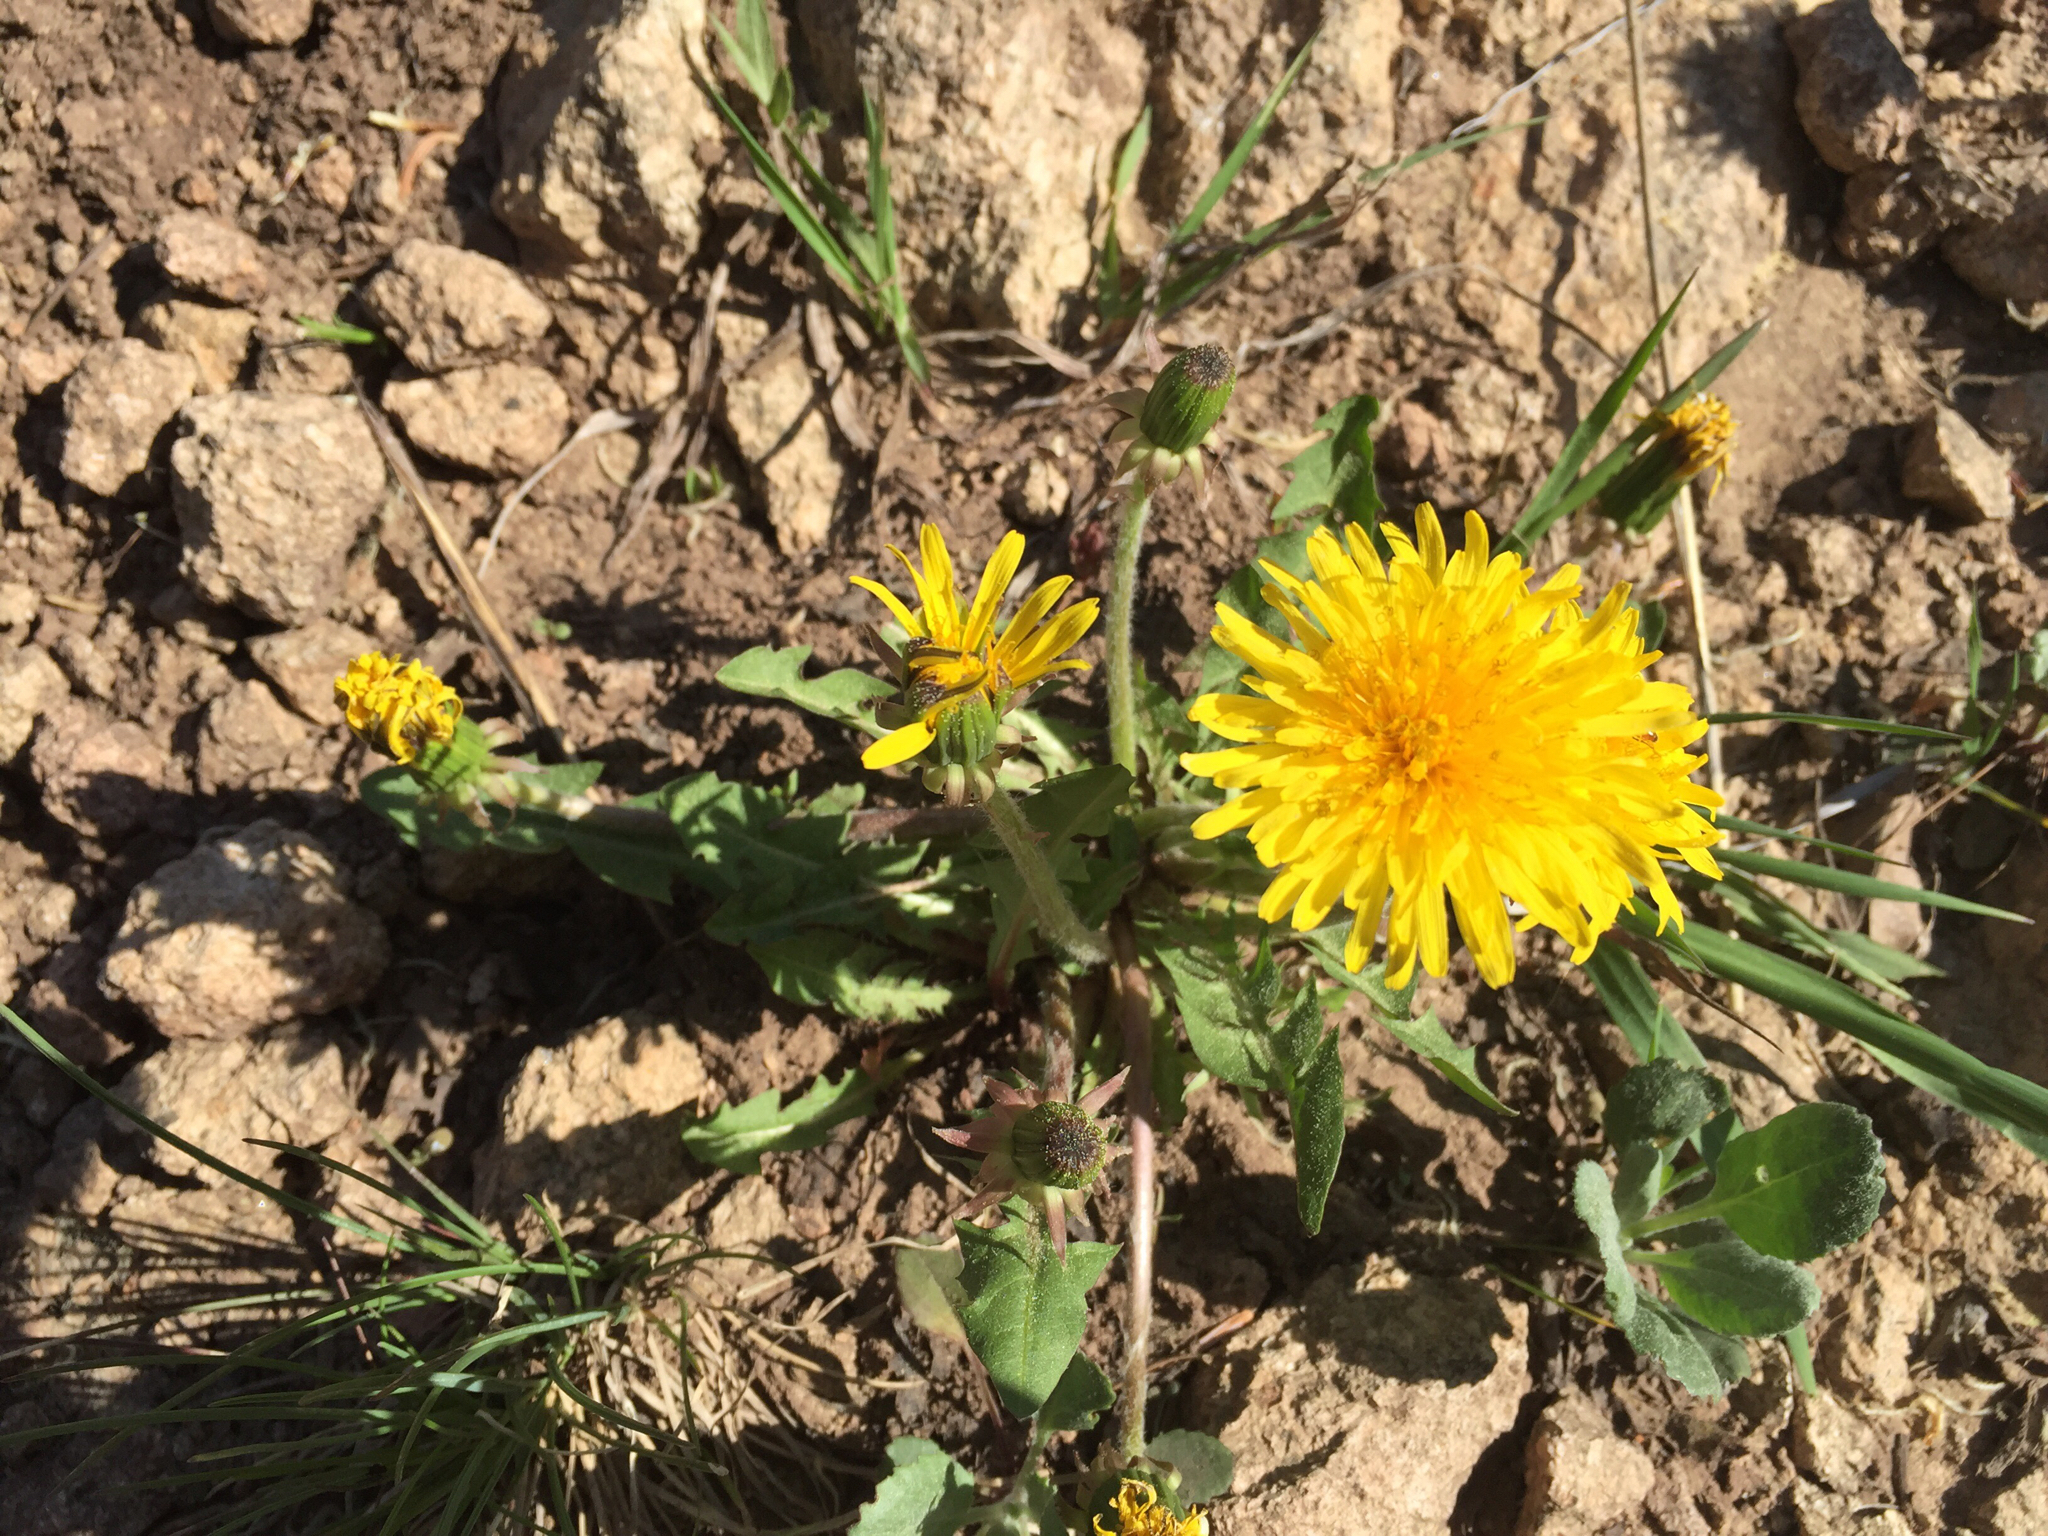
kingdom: Plantae
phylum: Tracheophyta
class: Magnoliopsida
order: Asterales
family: Asteraceae
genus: Taraxacum
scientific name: Taraxacum officinale
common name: Common dandelion
